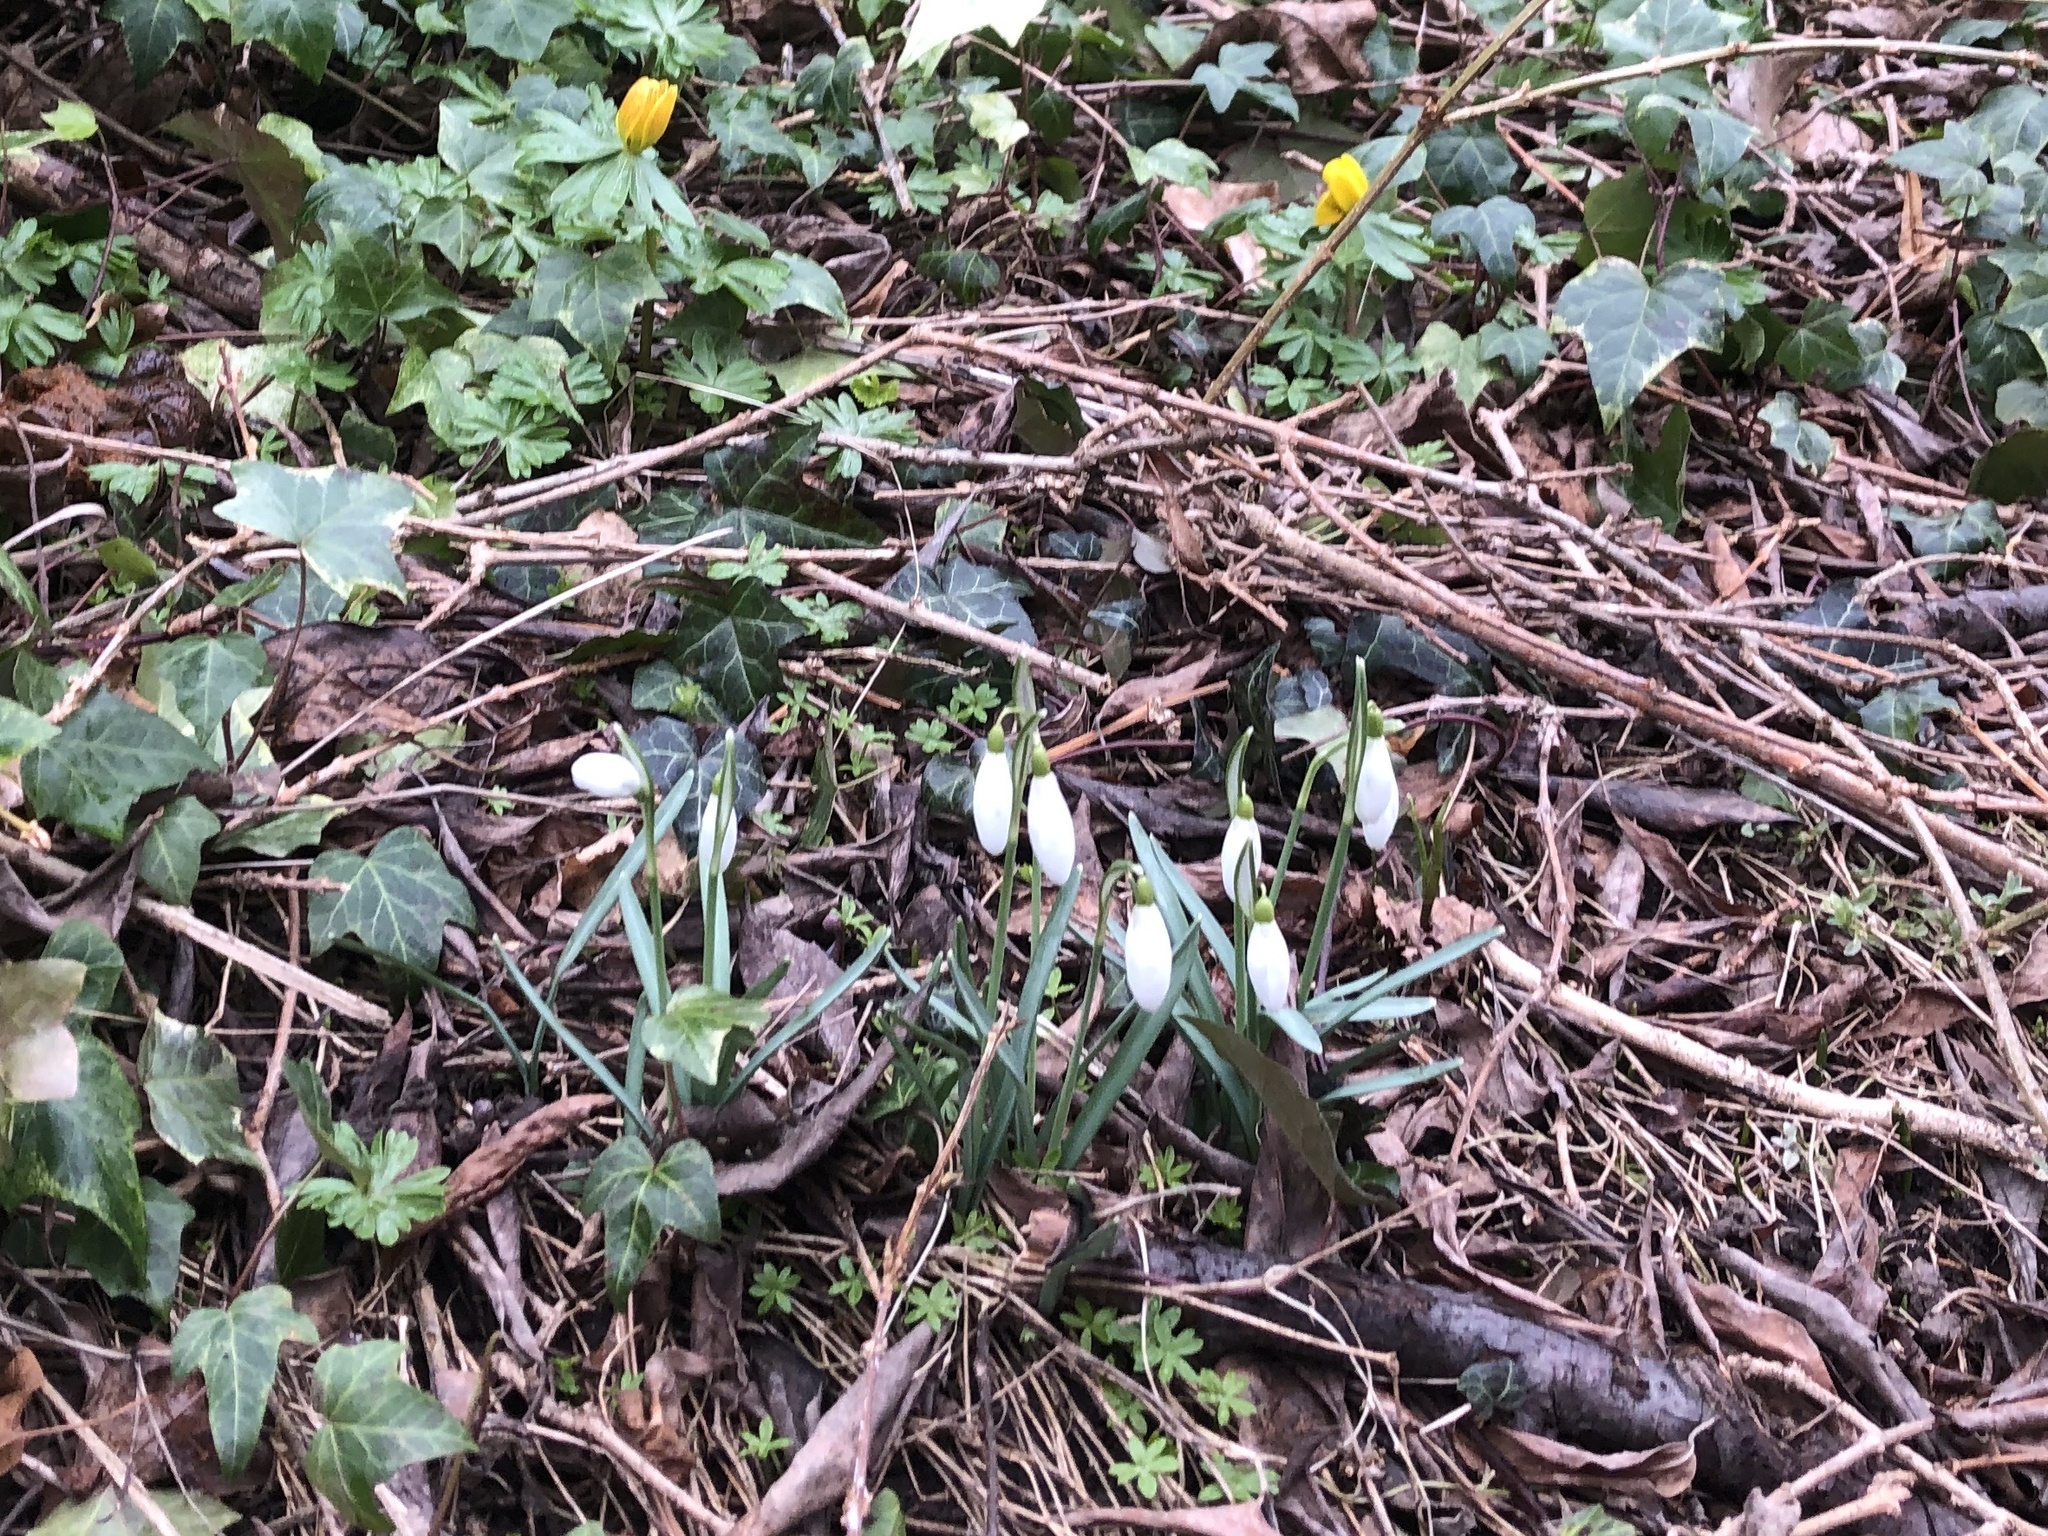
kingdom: Plantae
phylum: Tracheophyta
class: Liliopsida
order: Asparagales
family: Amaryllidaceae
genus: Galanthus
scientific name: Galanthus nivalis
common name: Snowdrop
